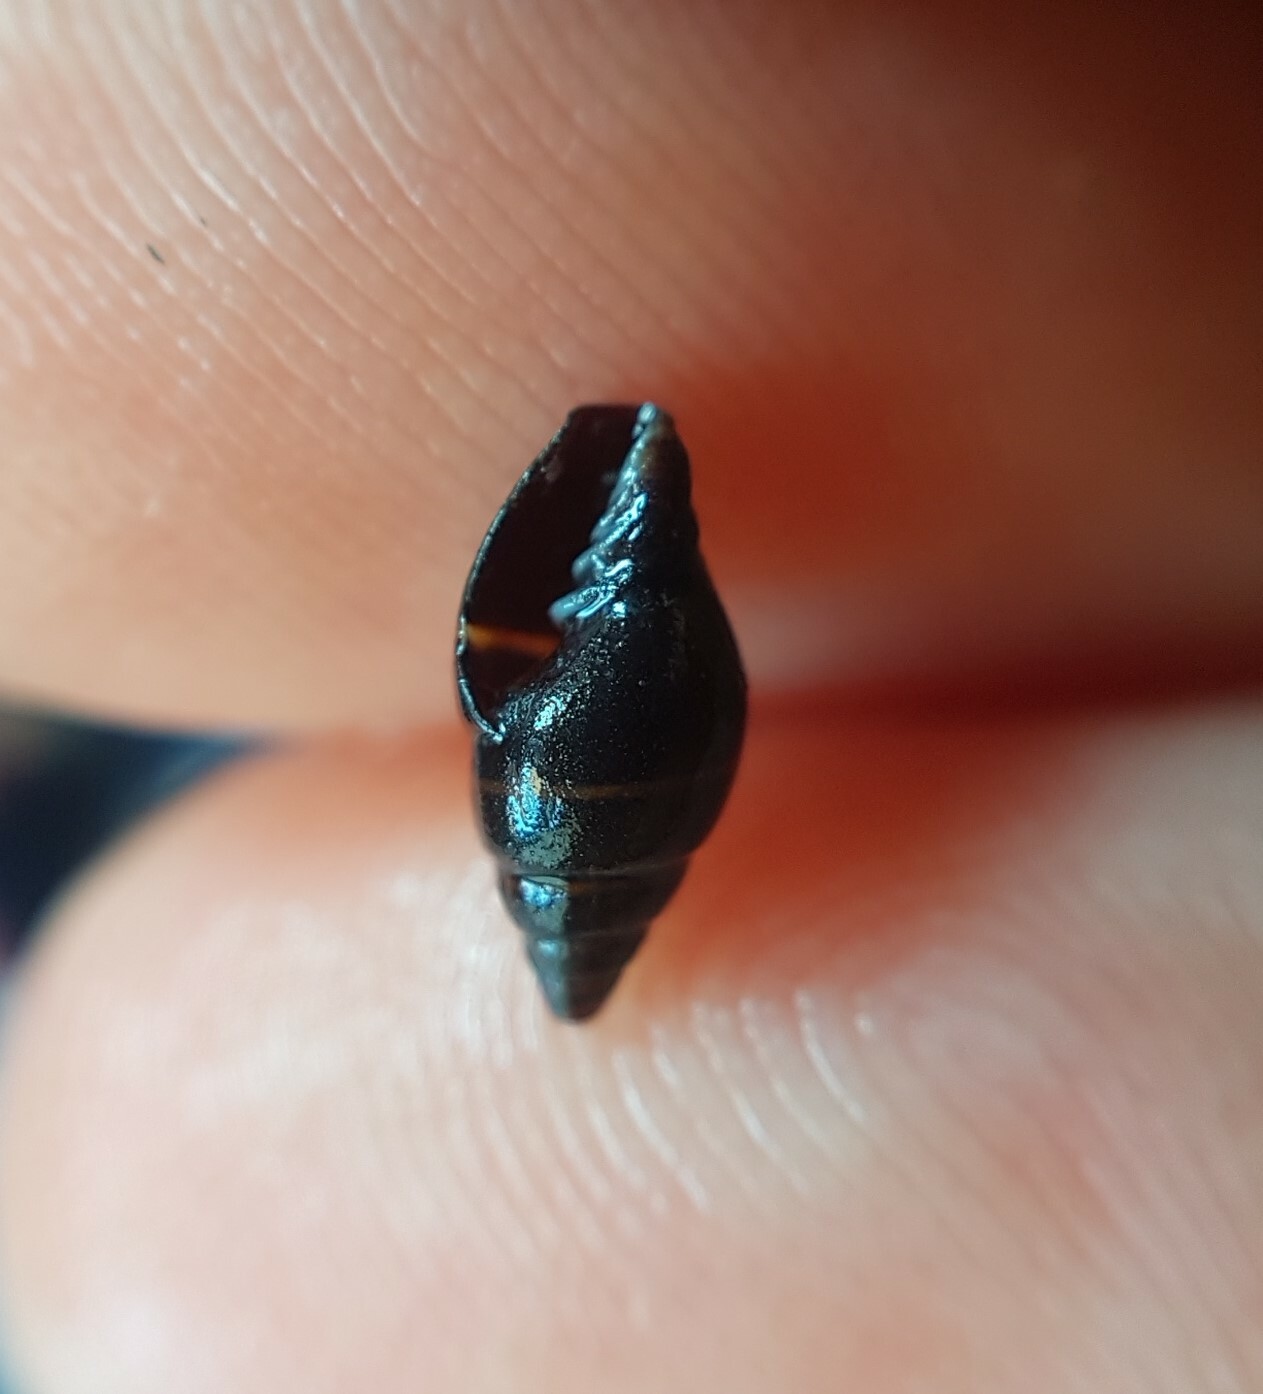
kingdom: Animalia
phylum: Mollusca
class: Gastropoda
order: Neogastropoda
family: Costellariidae
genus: Pusia
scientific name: Pusia ebenus
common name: Brown mitre
